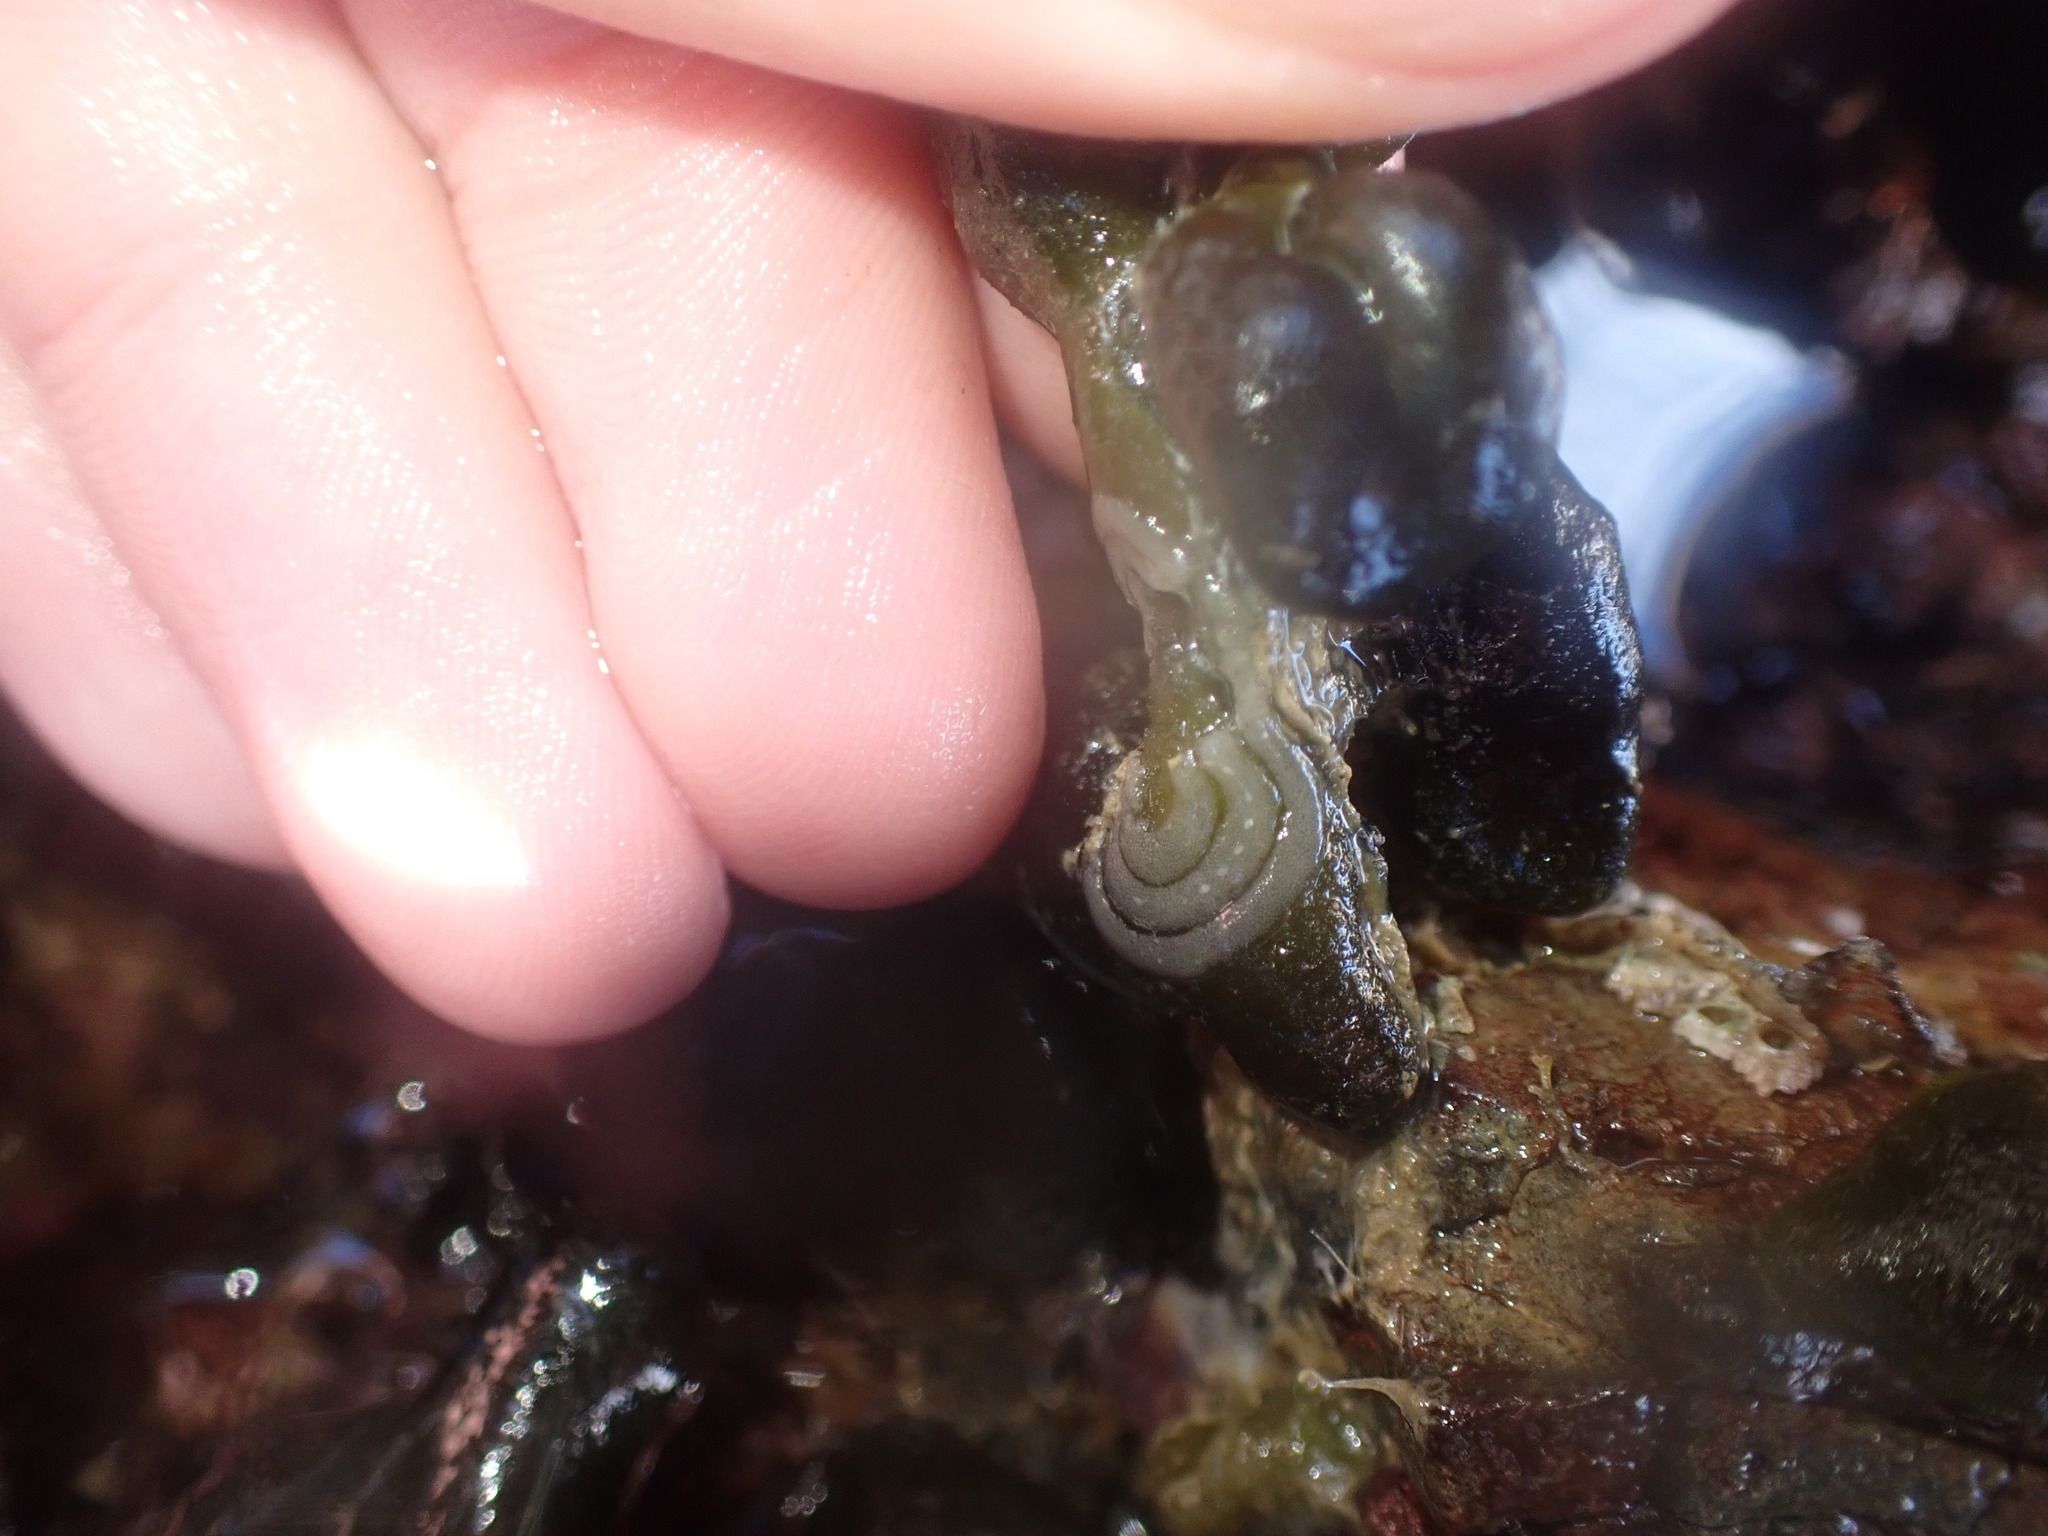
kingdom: Animalia
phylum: Mollusca
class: Gastropoda
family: Plakobranchidae
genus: Elysia
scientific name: Elysia maoria
